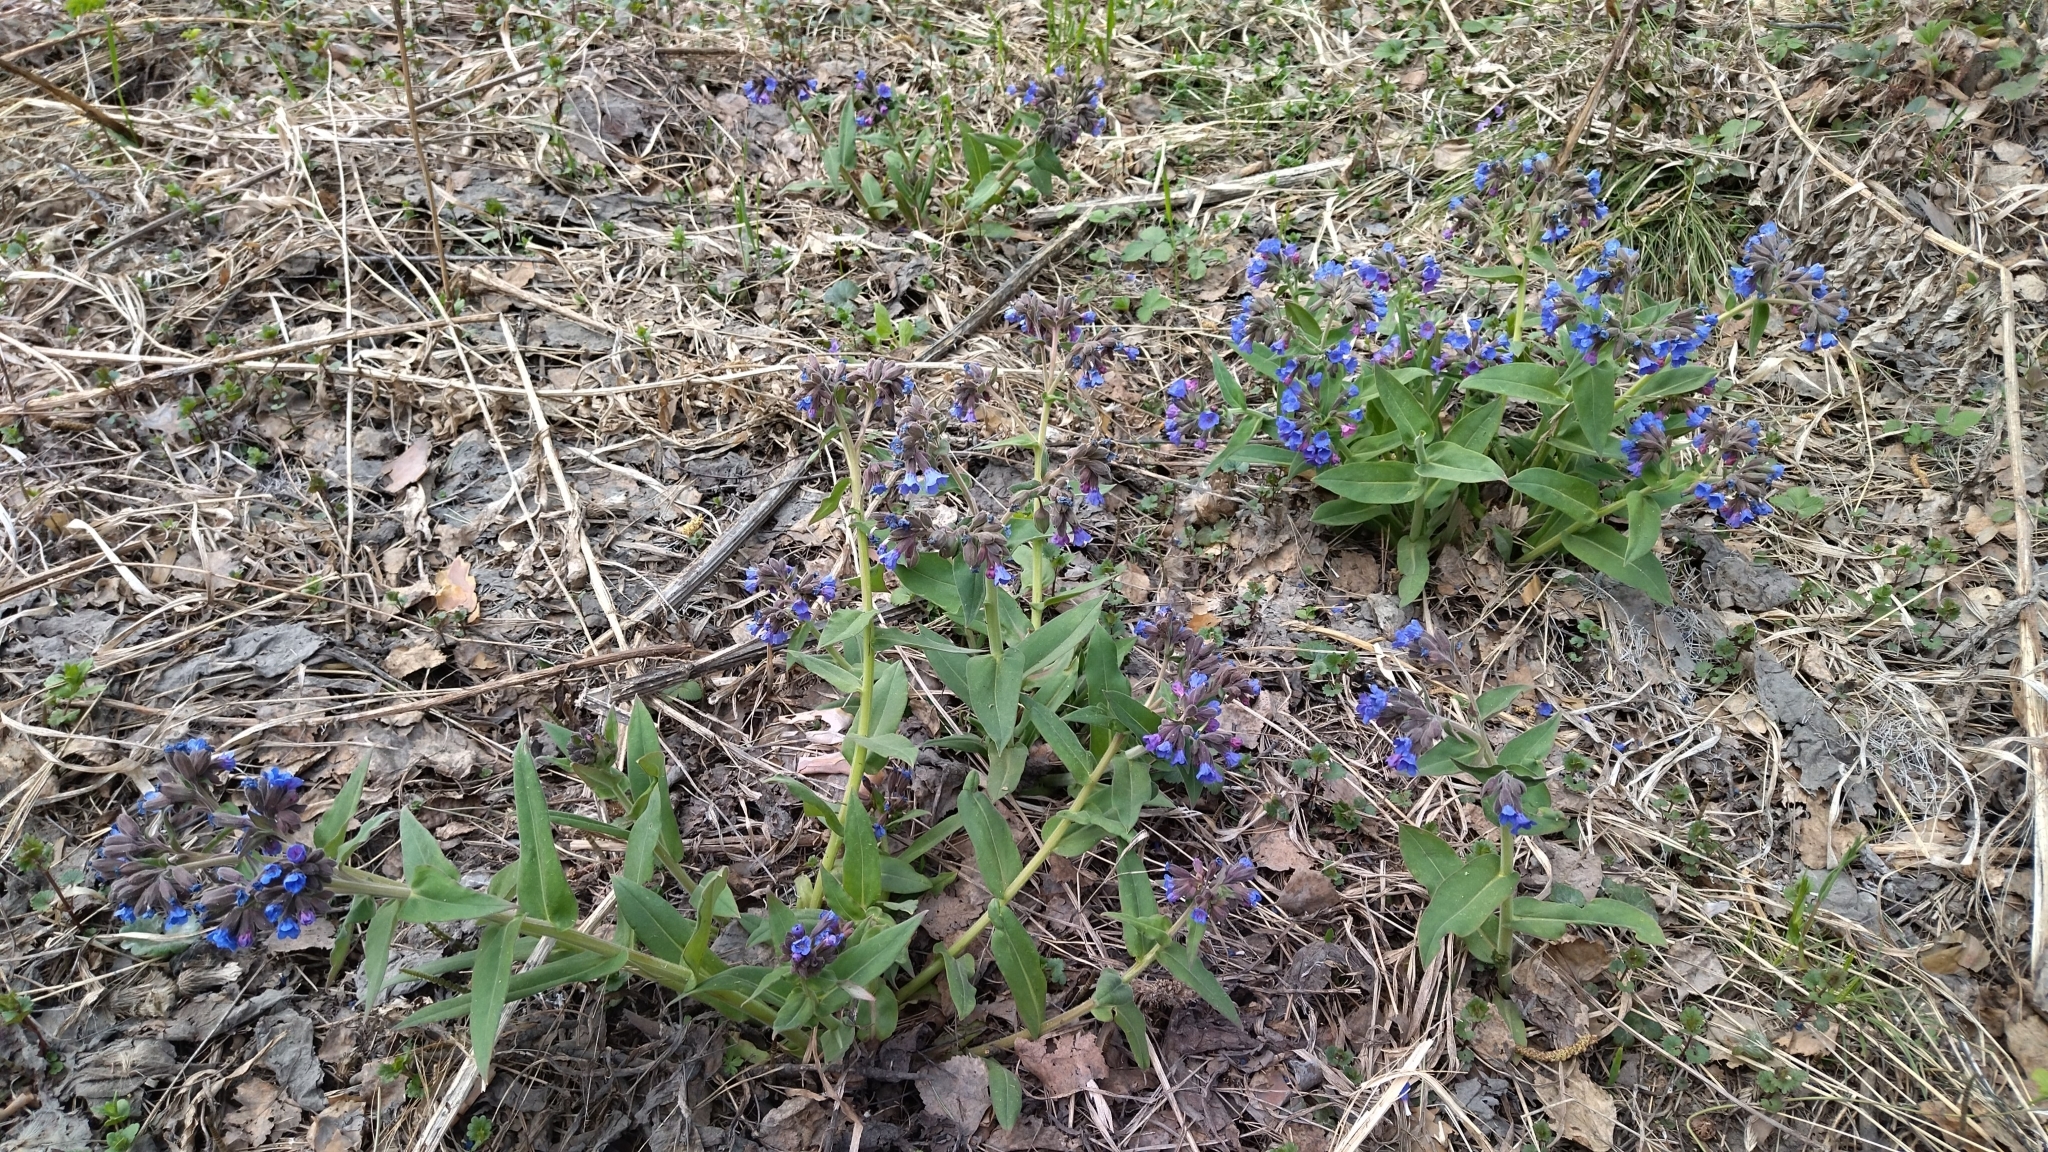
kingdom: Plantae
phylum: Tracheophyta
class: Magnoliopsida
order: Boraginales
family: Boraginaceae
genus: Pulmonaria
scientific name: Pulmonaria mollis
